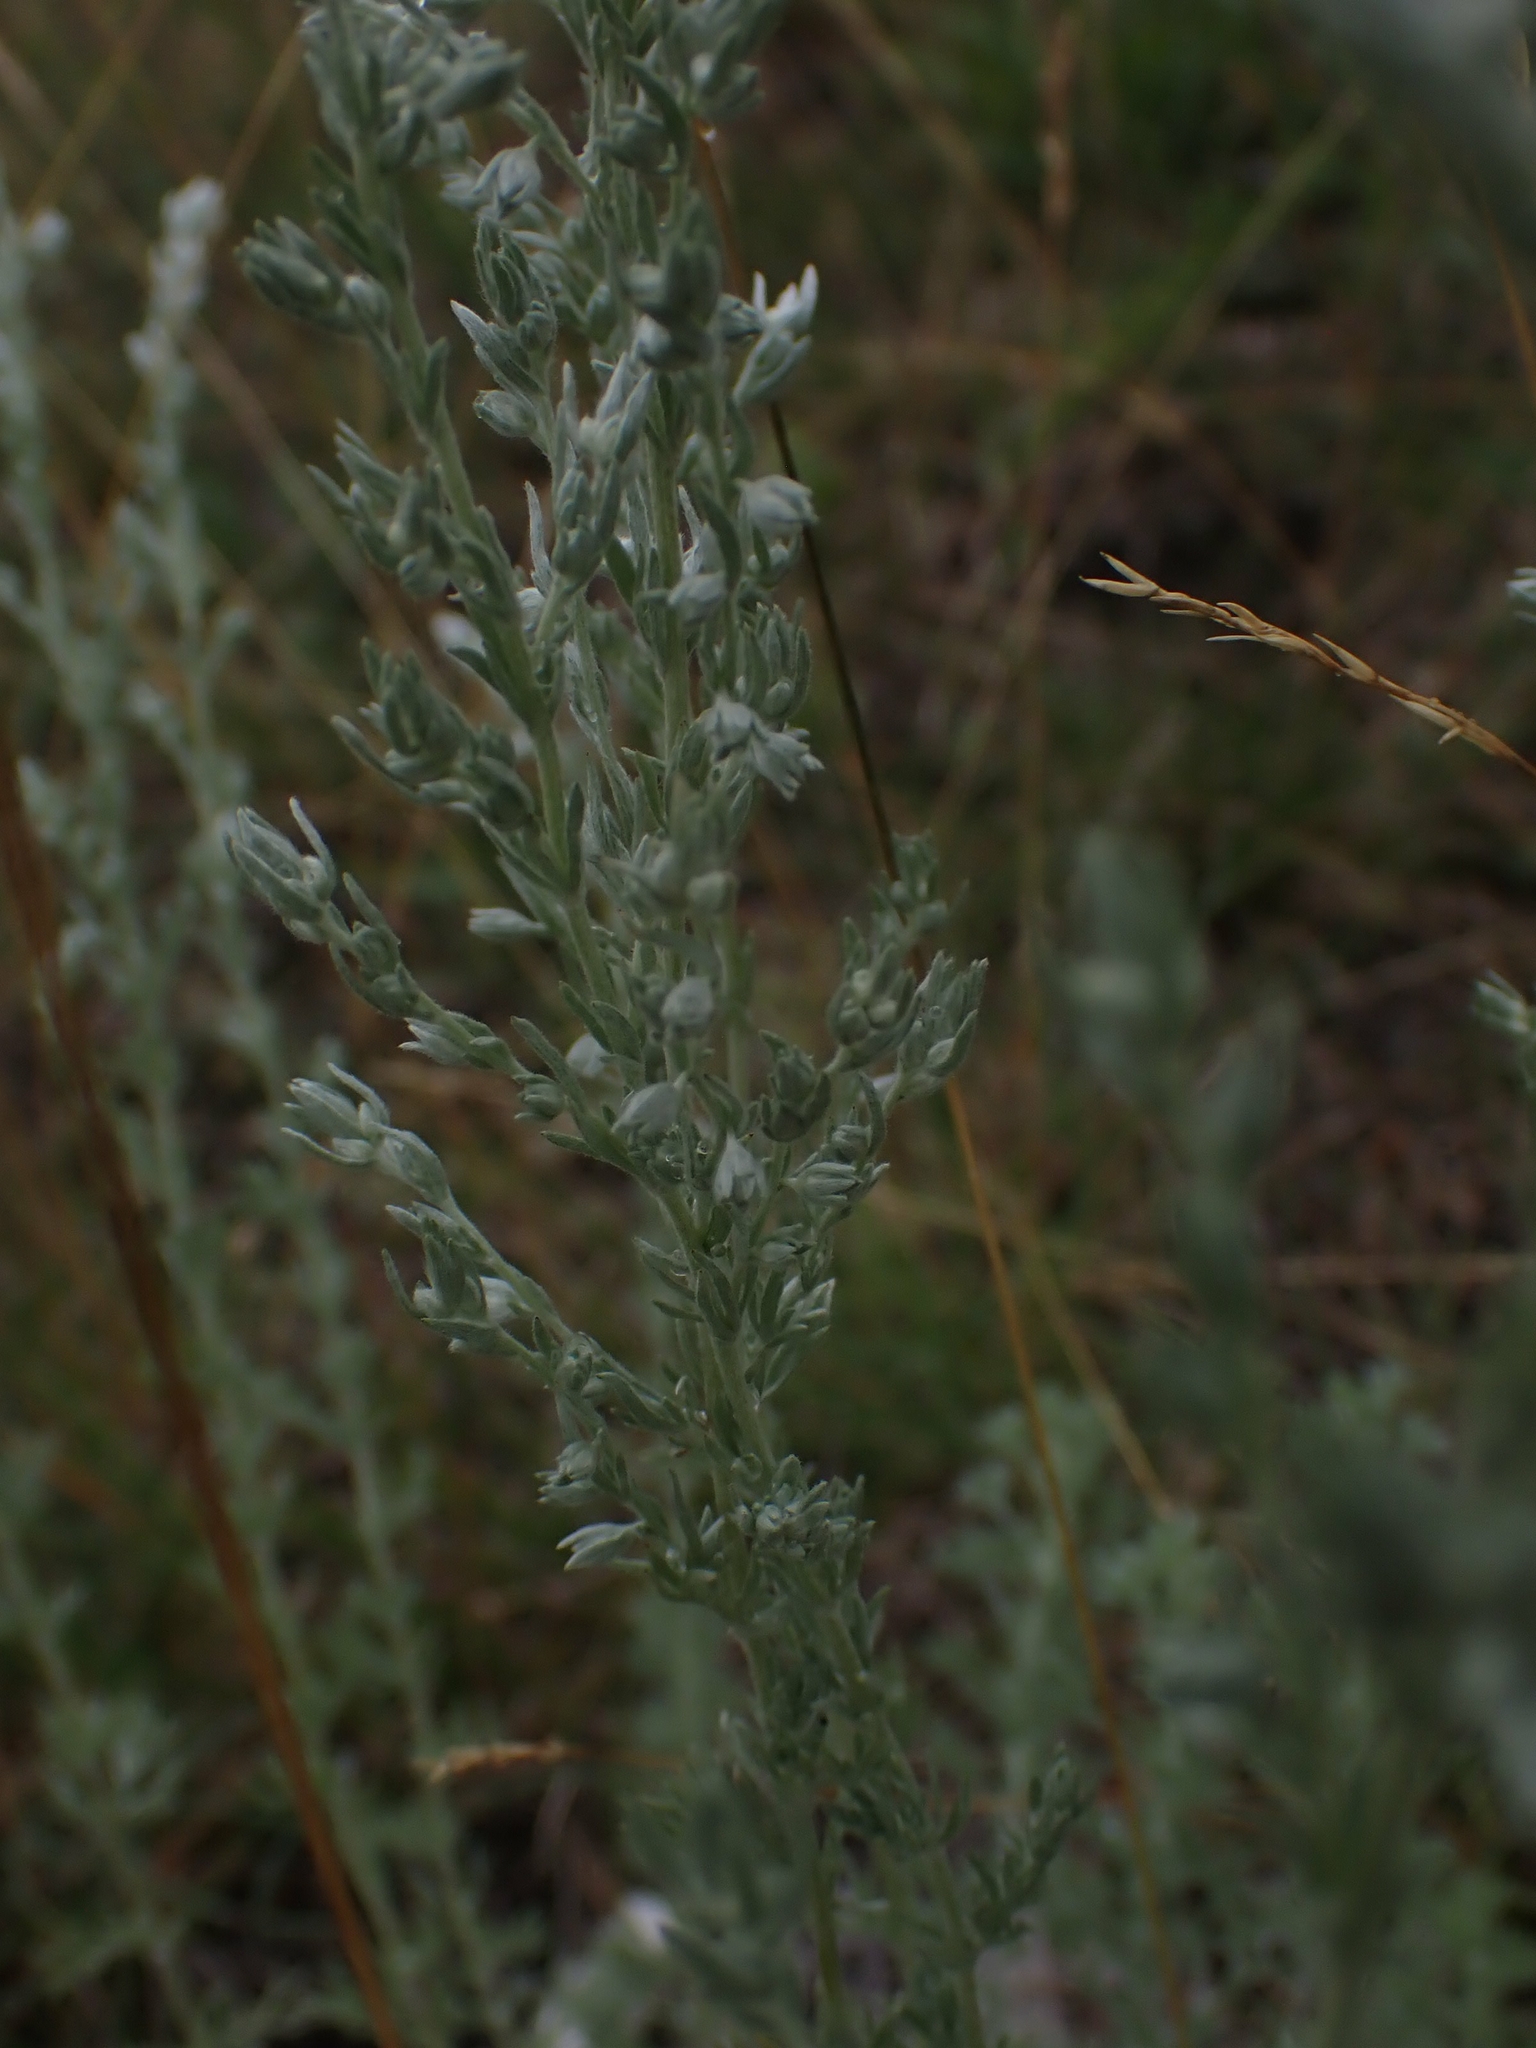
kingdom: Plantae
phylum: Tracheophyta
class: Magnoliopsida
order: Asterales
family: Asteraceae
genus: Artemisia
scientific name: Artemisia frigida
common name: Prairie sagewort
